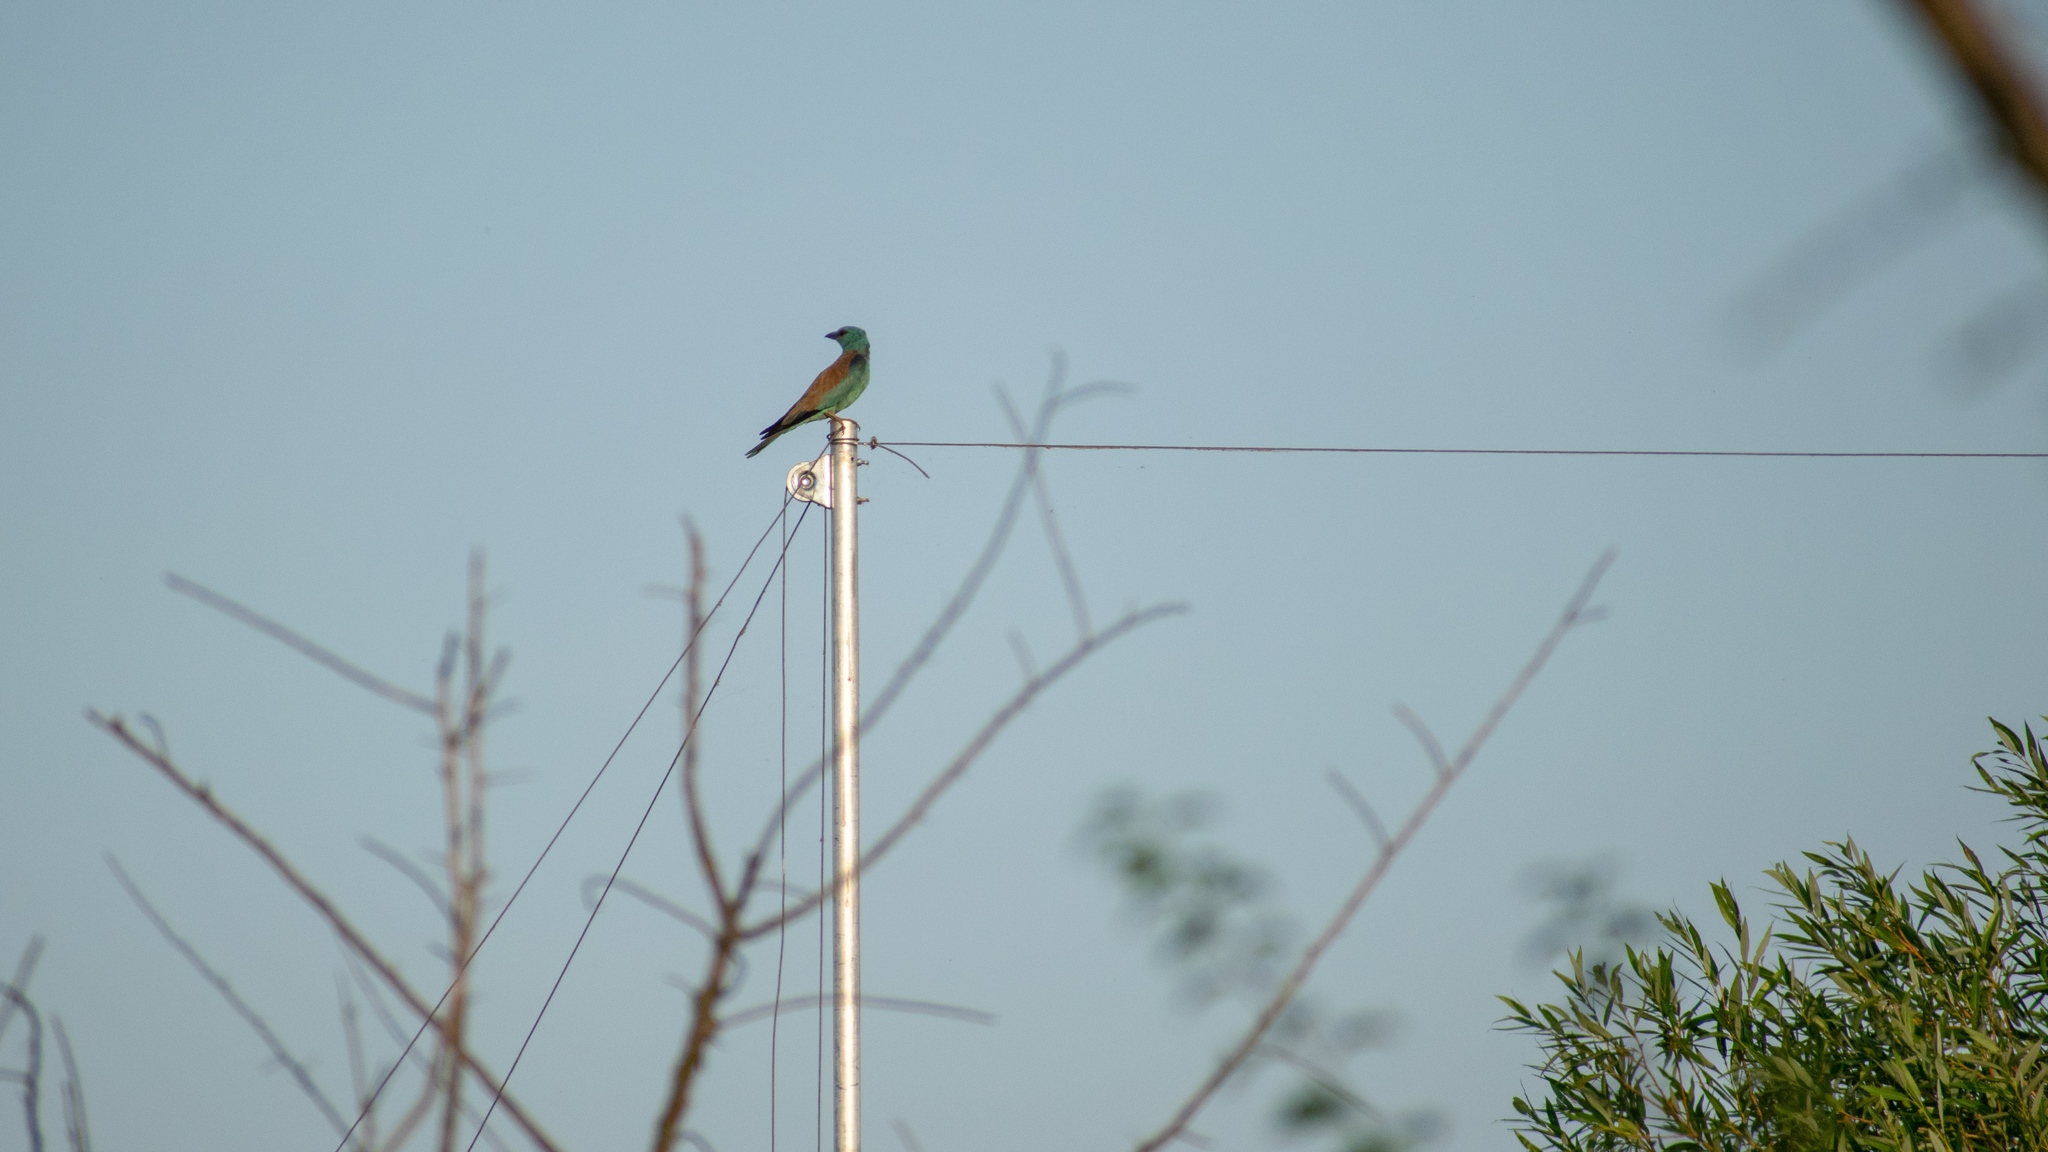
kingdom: Animalia
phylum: Chordata
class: Aves
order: Coraciiformes
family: Coraciidae
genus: Coracias
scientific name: Coracias garrulus
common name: European roller
